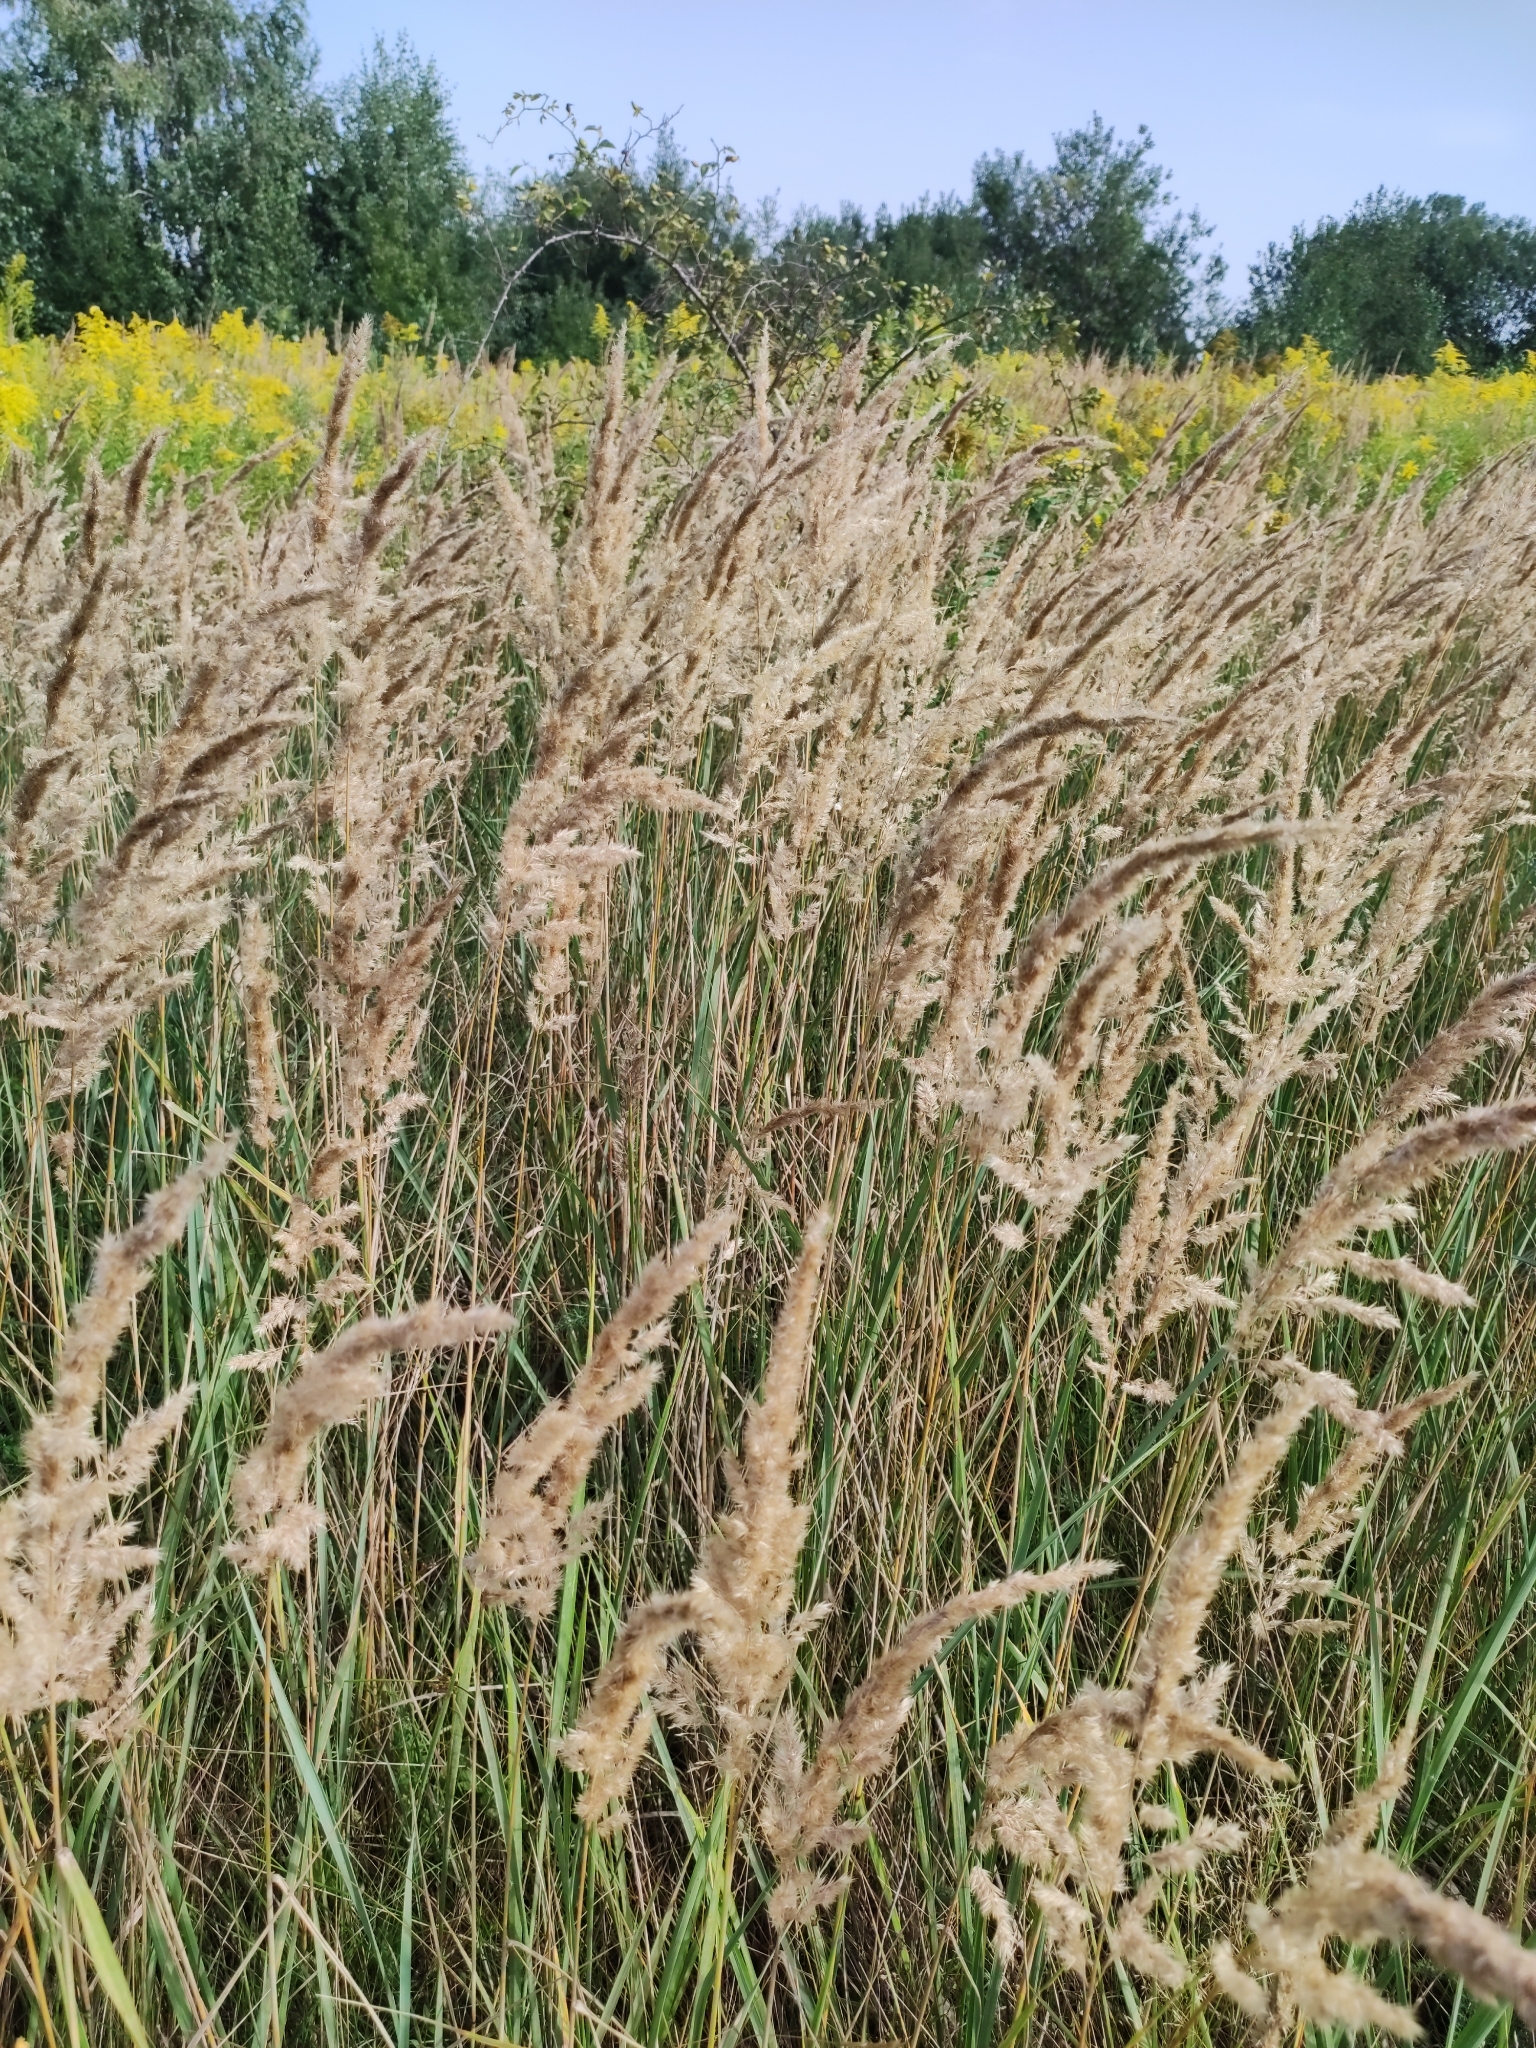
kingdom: Plantae
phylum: Tracheophyta
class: Liliopsida
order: Poales
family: Poaceae
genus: Calamagrostis
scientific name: Calamagrostis epigejos
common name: Wood small-reed
